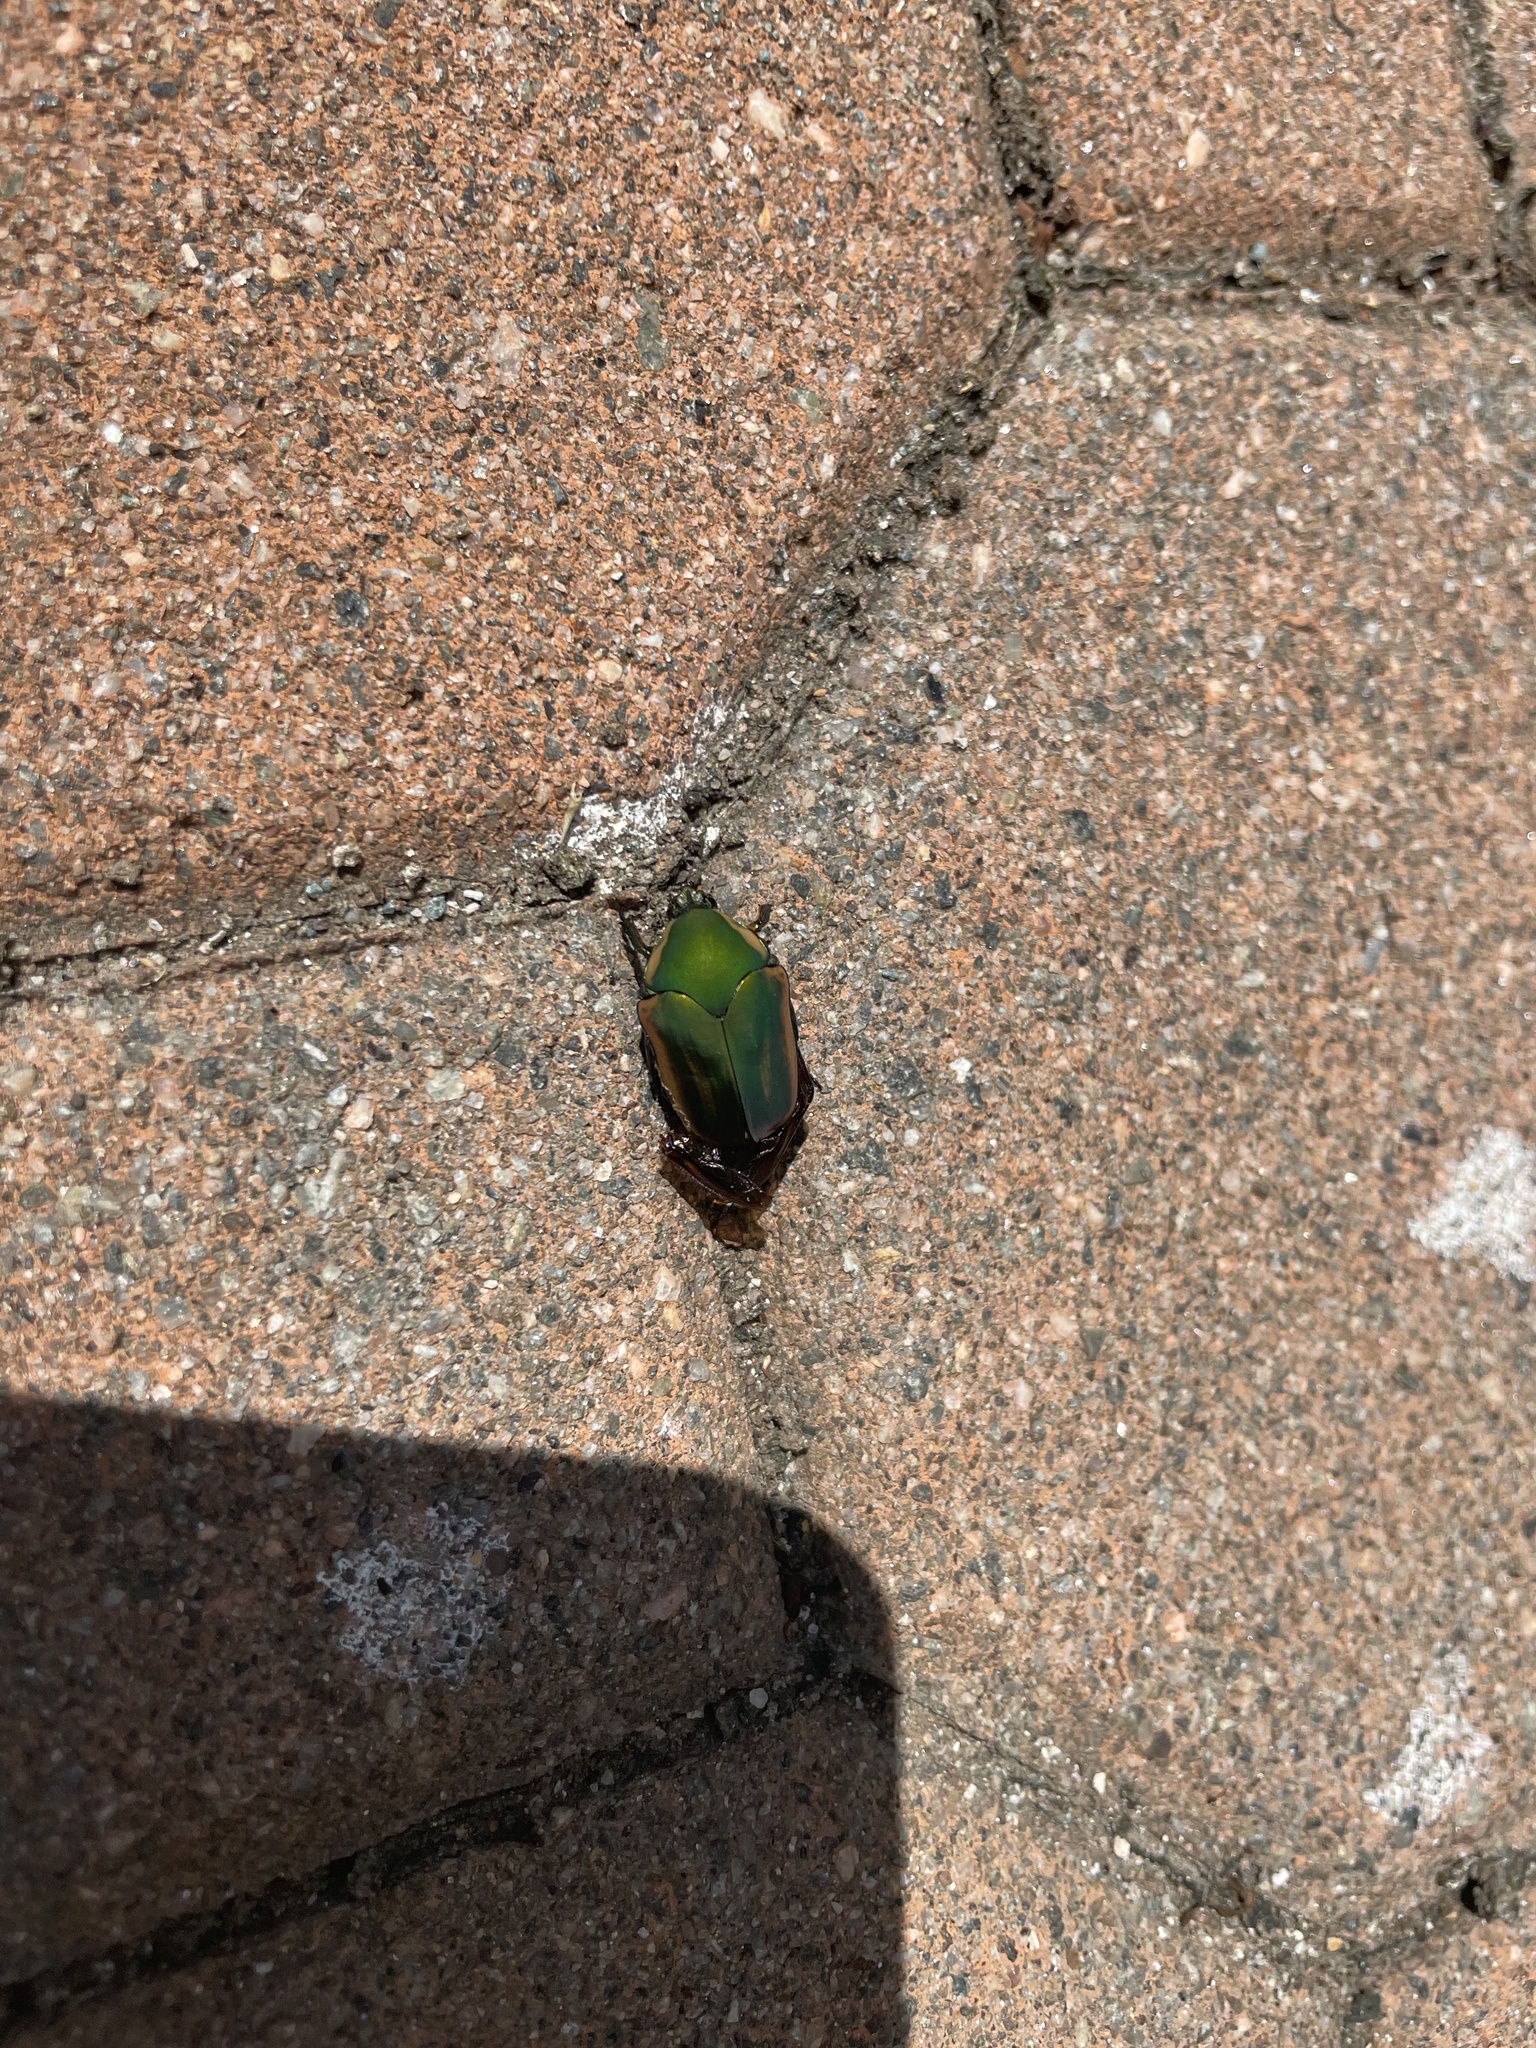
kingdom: Animalia
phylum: Arthropoda
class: Insecta
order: Coleoptera
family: Scarabaeidae
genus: Cotinis
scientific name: Cotinis nitida
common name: Common green june beetle
